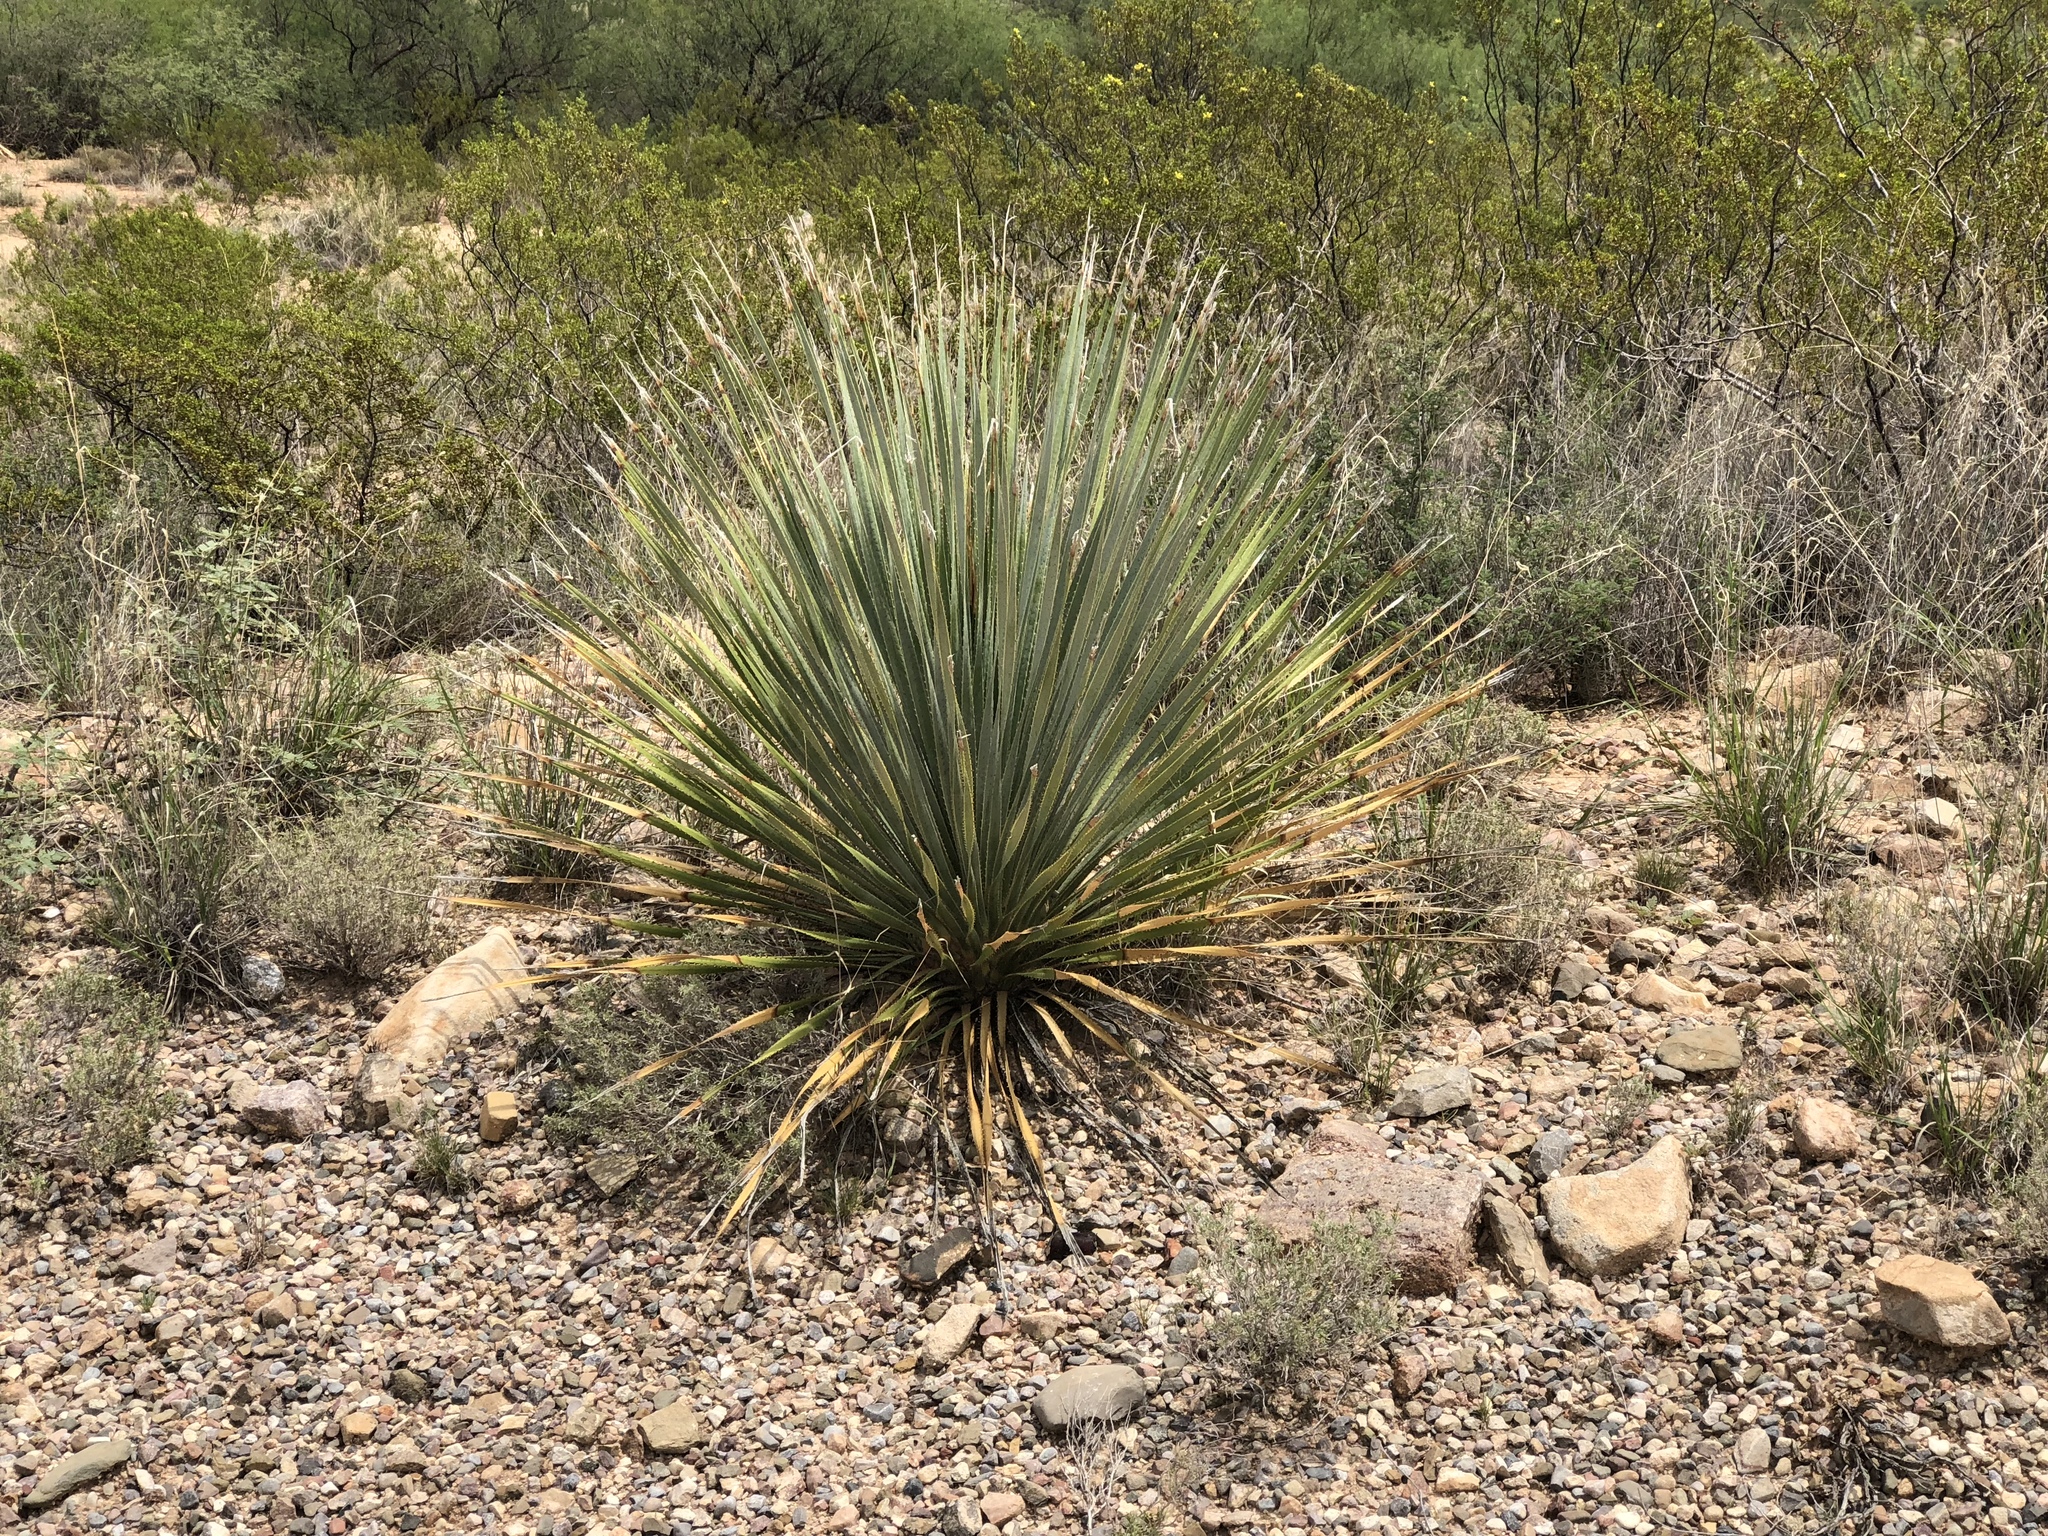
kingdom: Plantae
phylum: Tracheophyta
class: Liliopsida
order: Asparagales
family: Asparagaceae
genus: Dasylirion
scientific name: Dasylirion wheeleri
